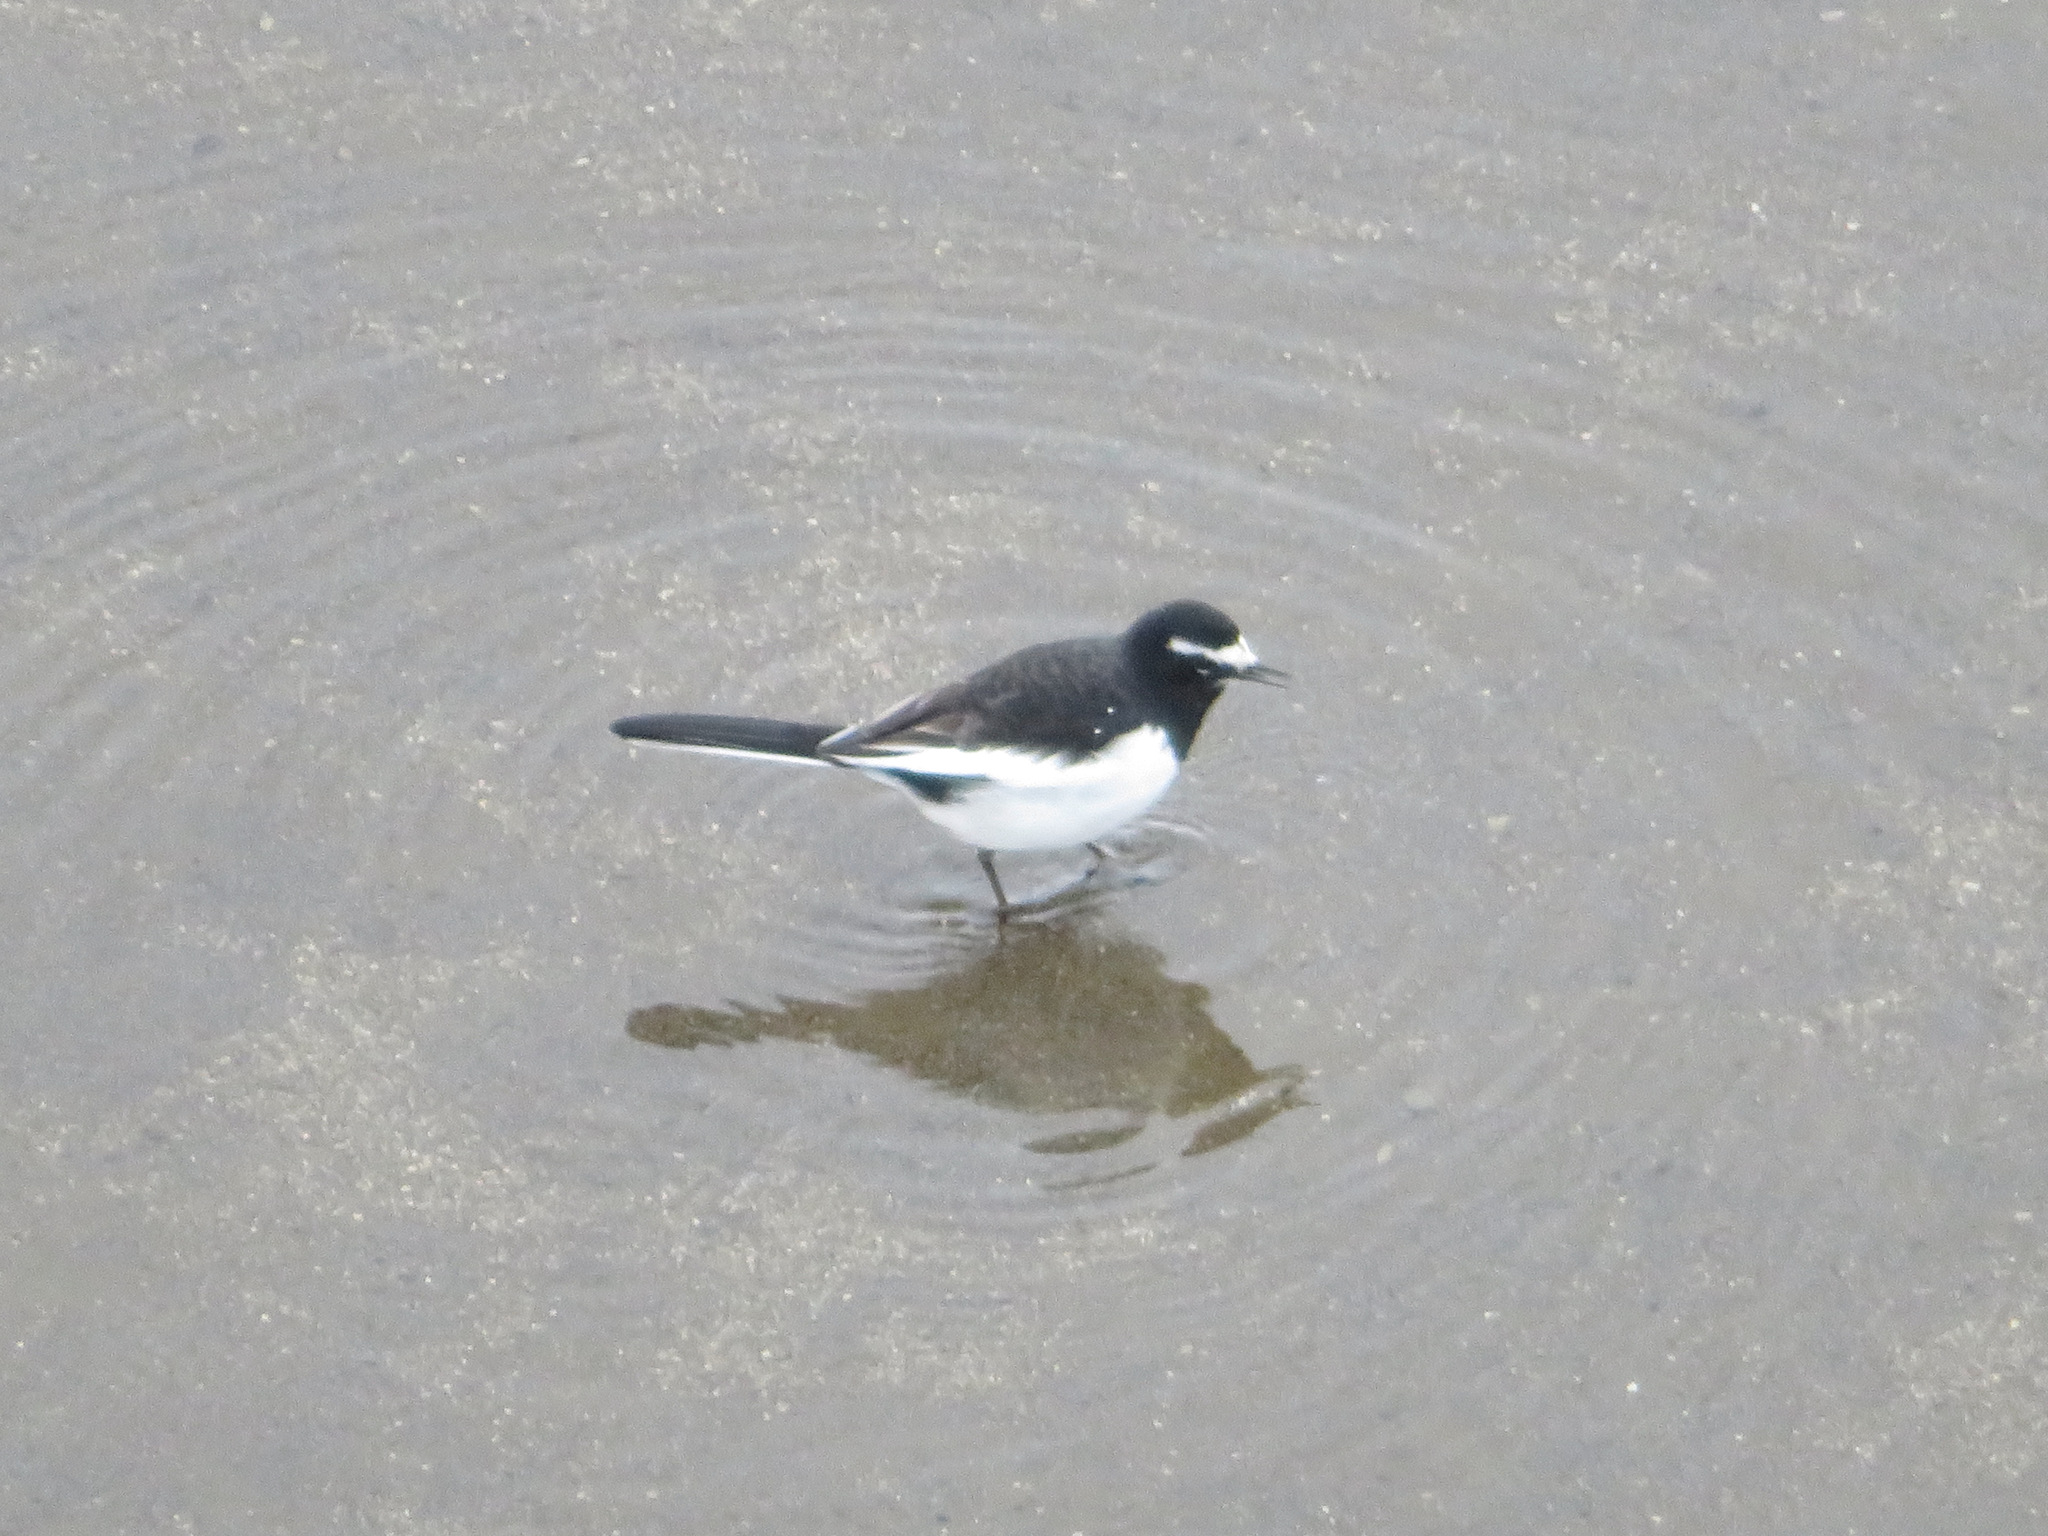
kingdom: Animalia
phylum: Chordata
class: Aves
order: Passeriformes
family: Motacillidae
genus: Motacilla
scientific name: Motacilla grandis
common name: Japanese wagtail
